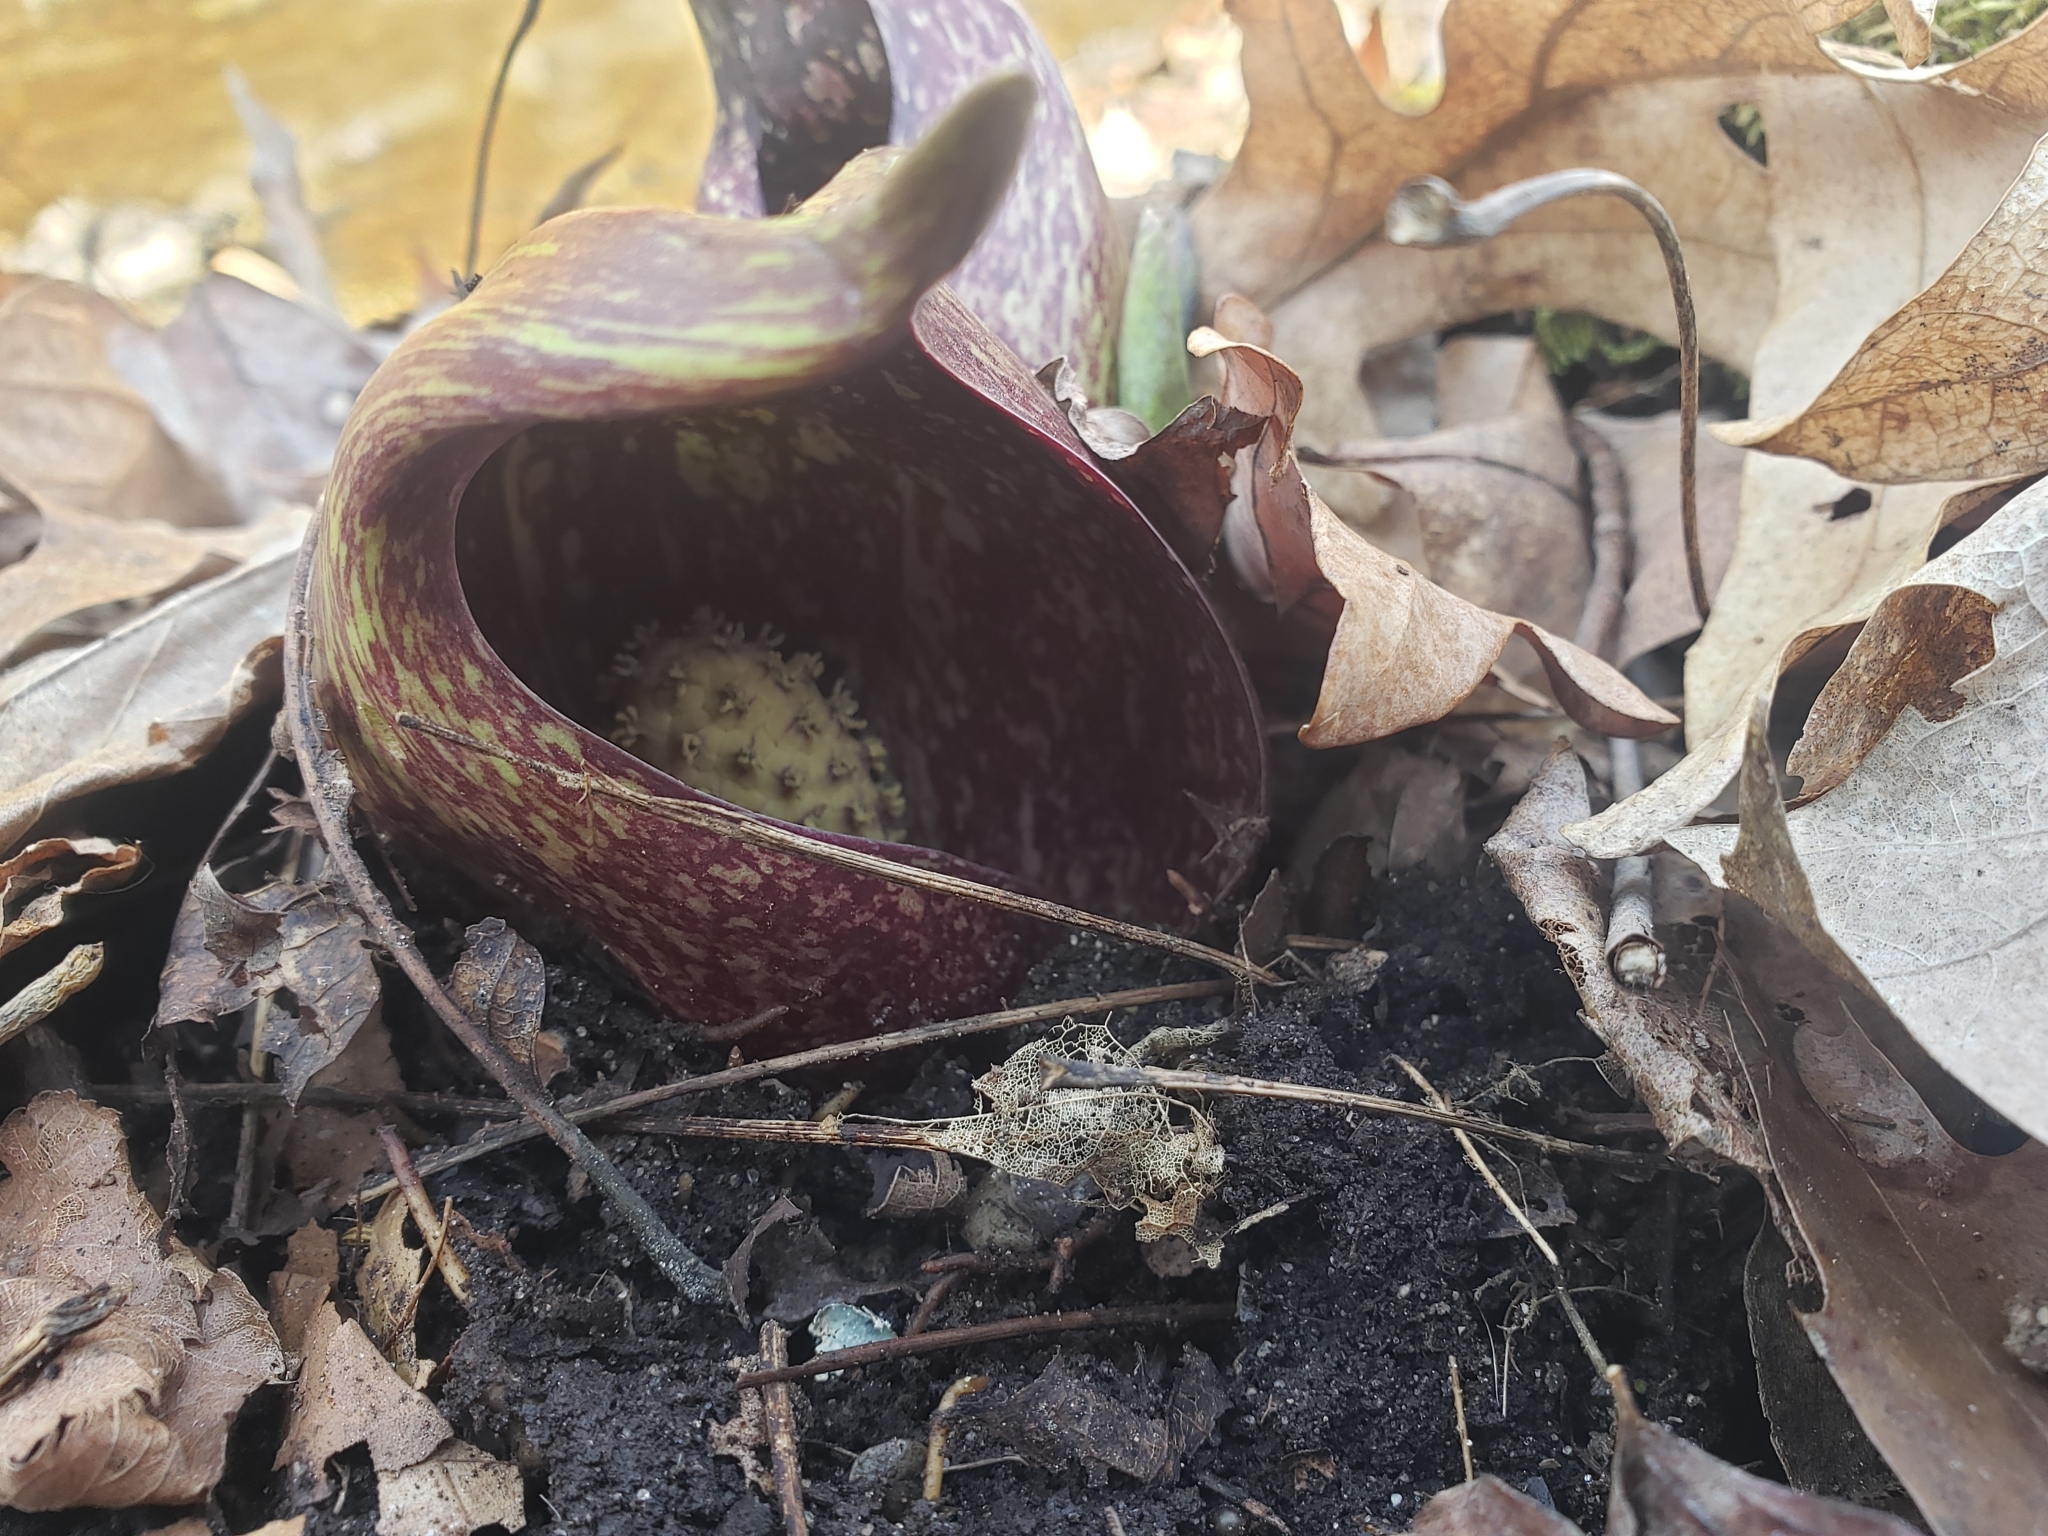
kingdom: Plantae
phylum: Tracheophyta
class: Liliopsida
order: Alismatales
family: Araceae
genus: Symplocarpus
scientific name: Symplocarpus foetidus
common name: Eastern skunk cabbage
